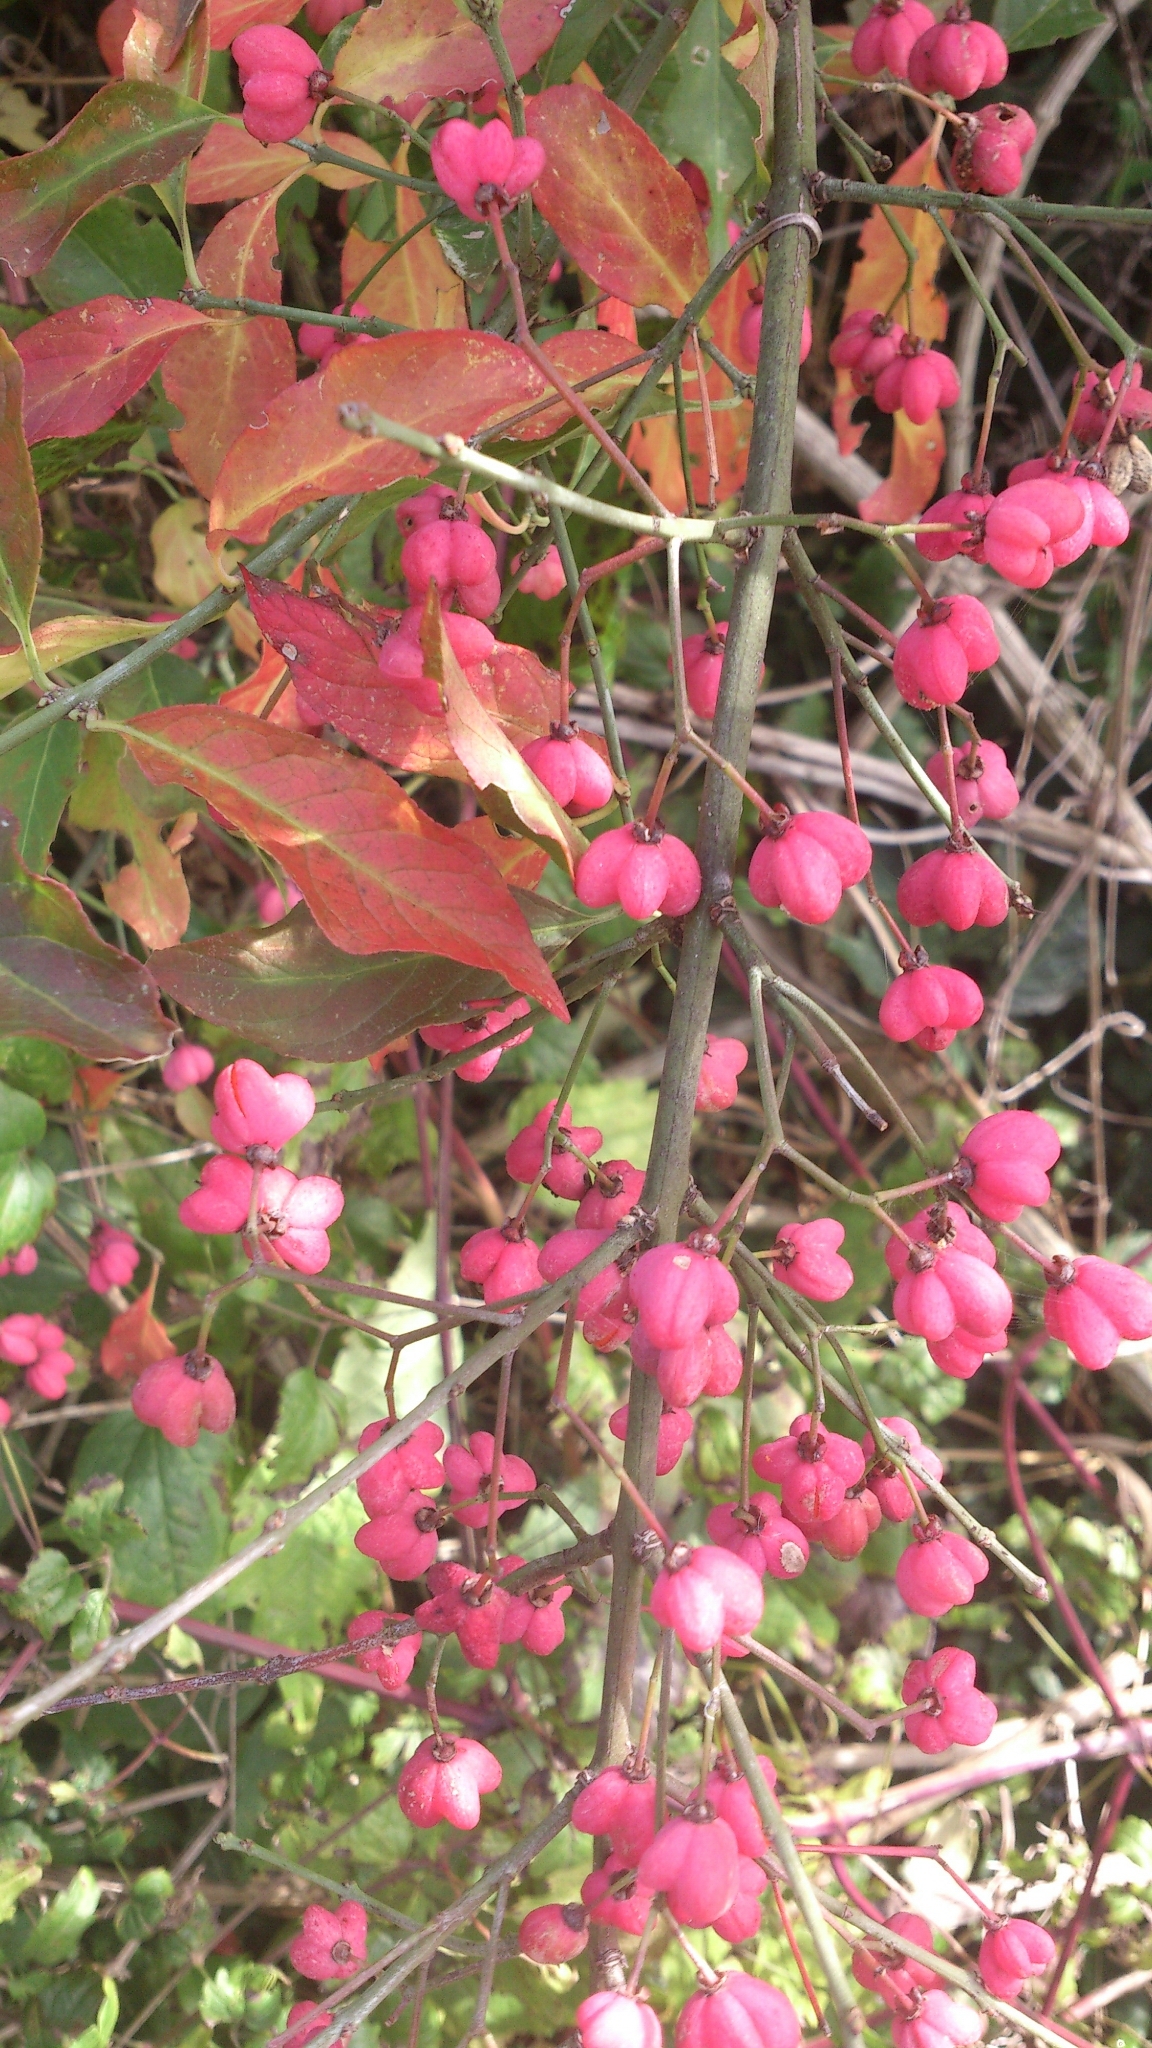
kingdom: Plantae
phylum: Tracheophyta
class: Magnoliopsida
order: Celastrales
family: Celastraceae
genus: Euonymus
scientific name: Euonymus europaeus
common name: Spindle
